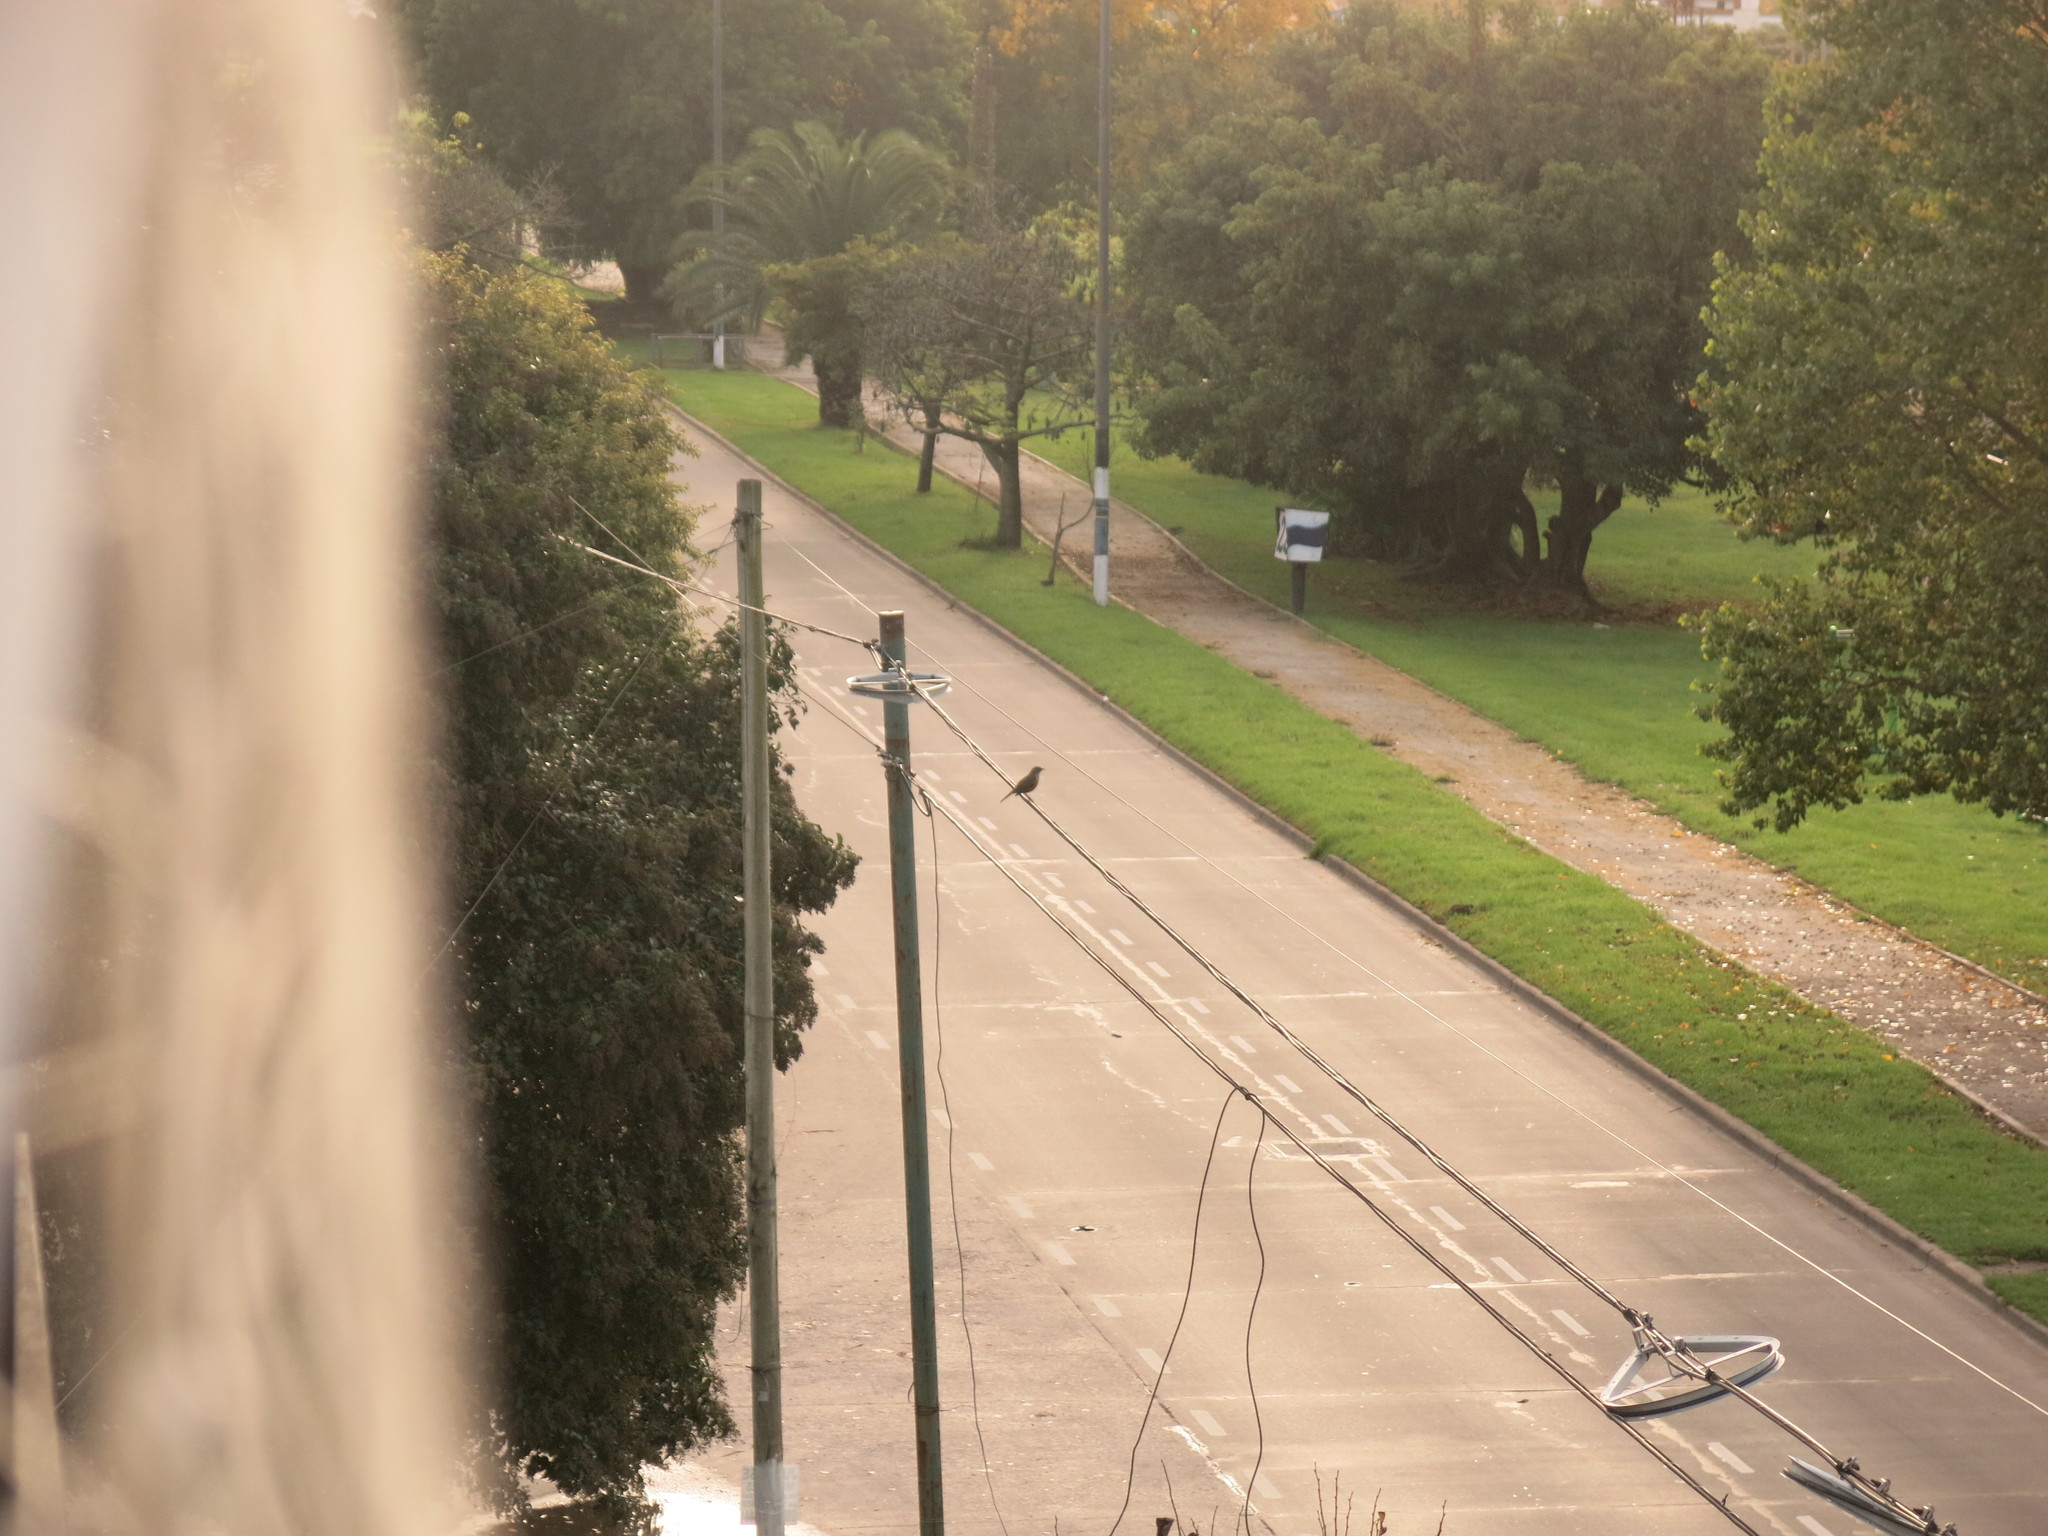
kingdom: Animalia
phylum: Chordata
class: Aves
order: Passeriformes
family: Turdidae
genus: Turdus
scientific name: Turdus rufiventris
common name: Rufous-bellied thrush
